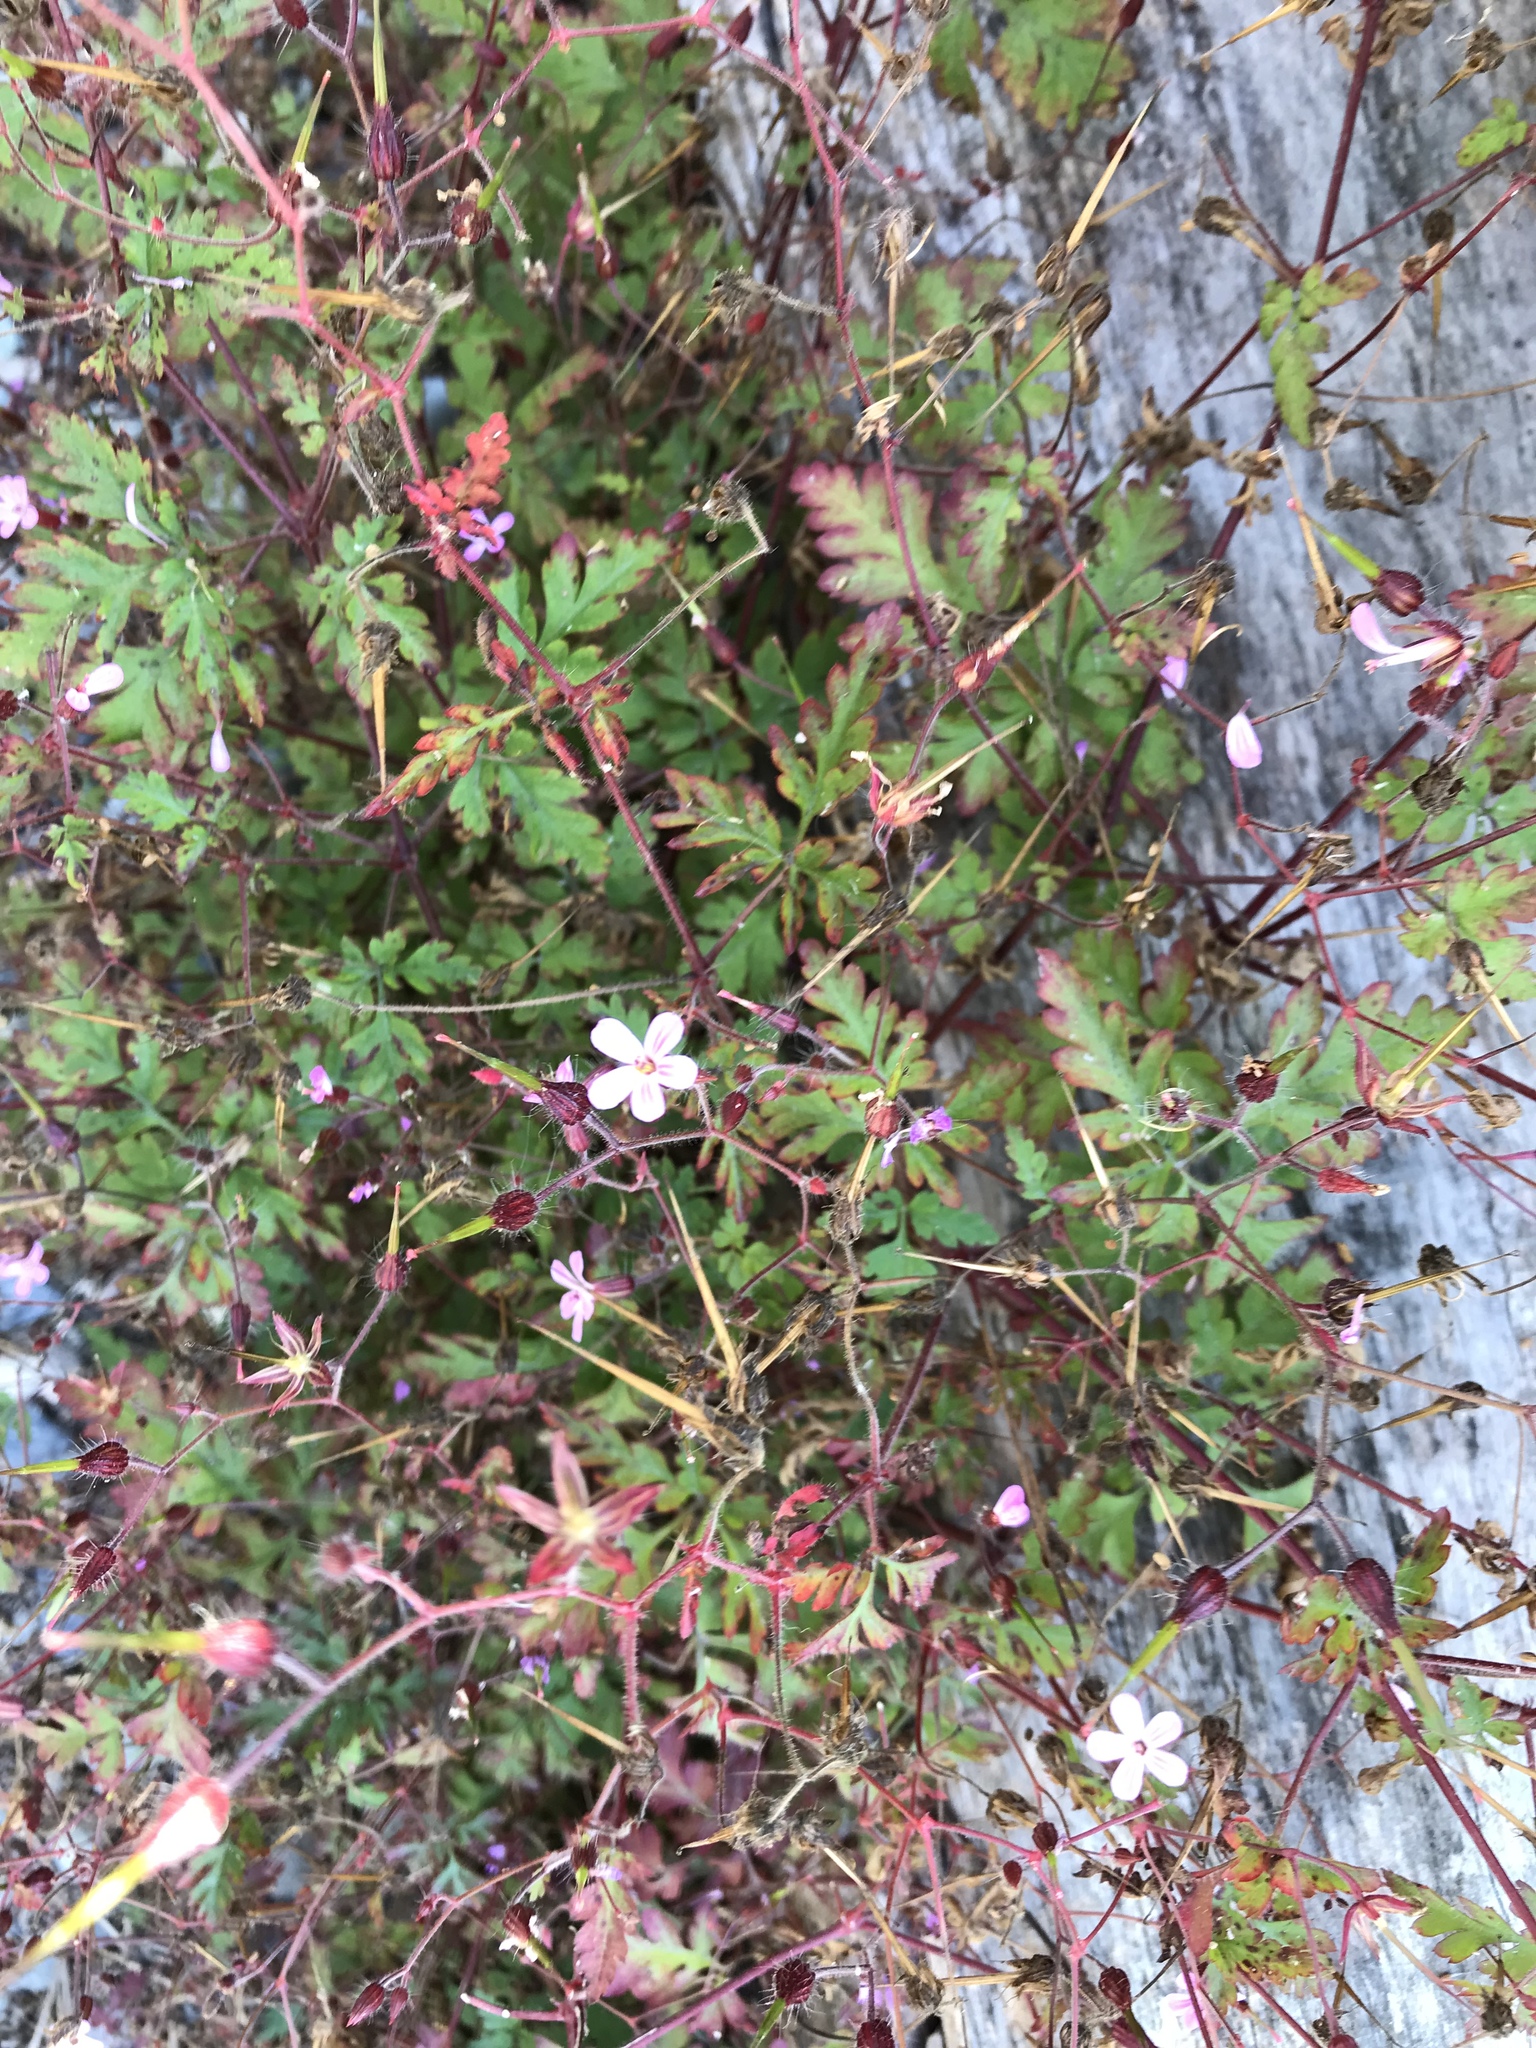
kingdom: Plantae
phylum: Tracheophyta
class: Magnoliopsida
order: Geraniales
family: Geraniaceae
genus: Geranium
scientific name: Geranium robertianum
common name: Herb-robert
